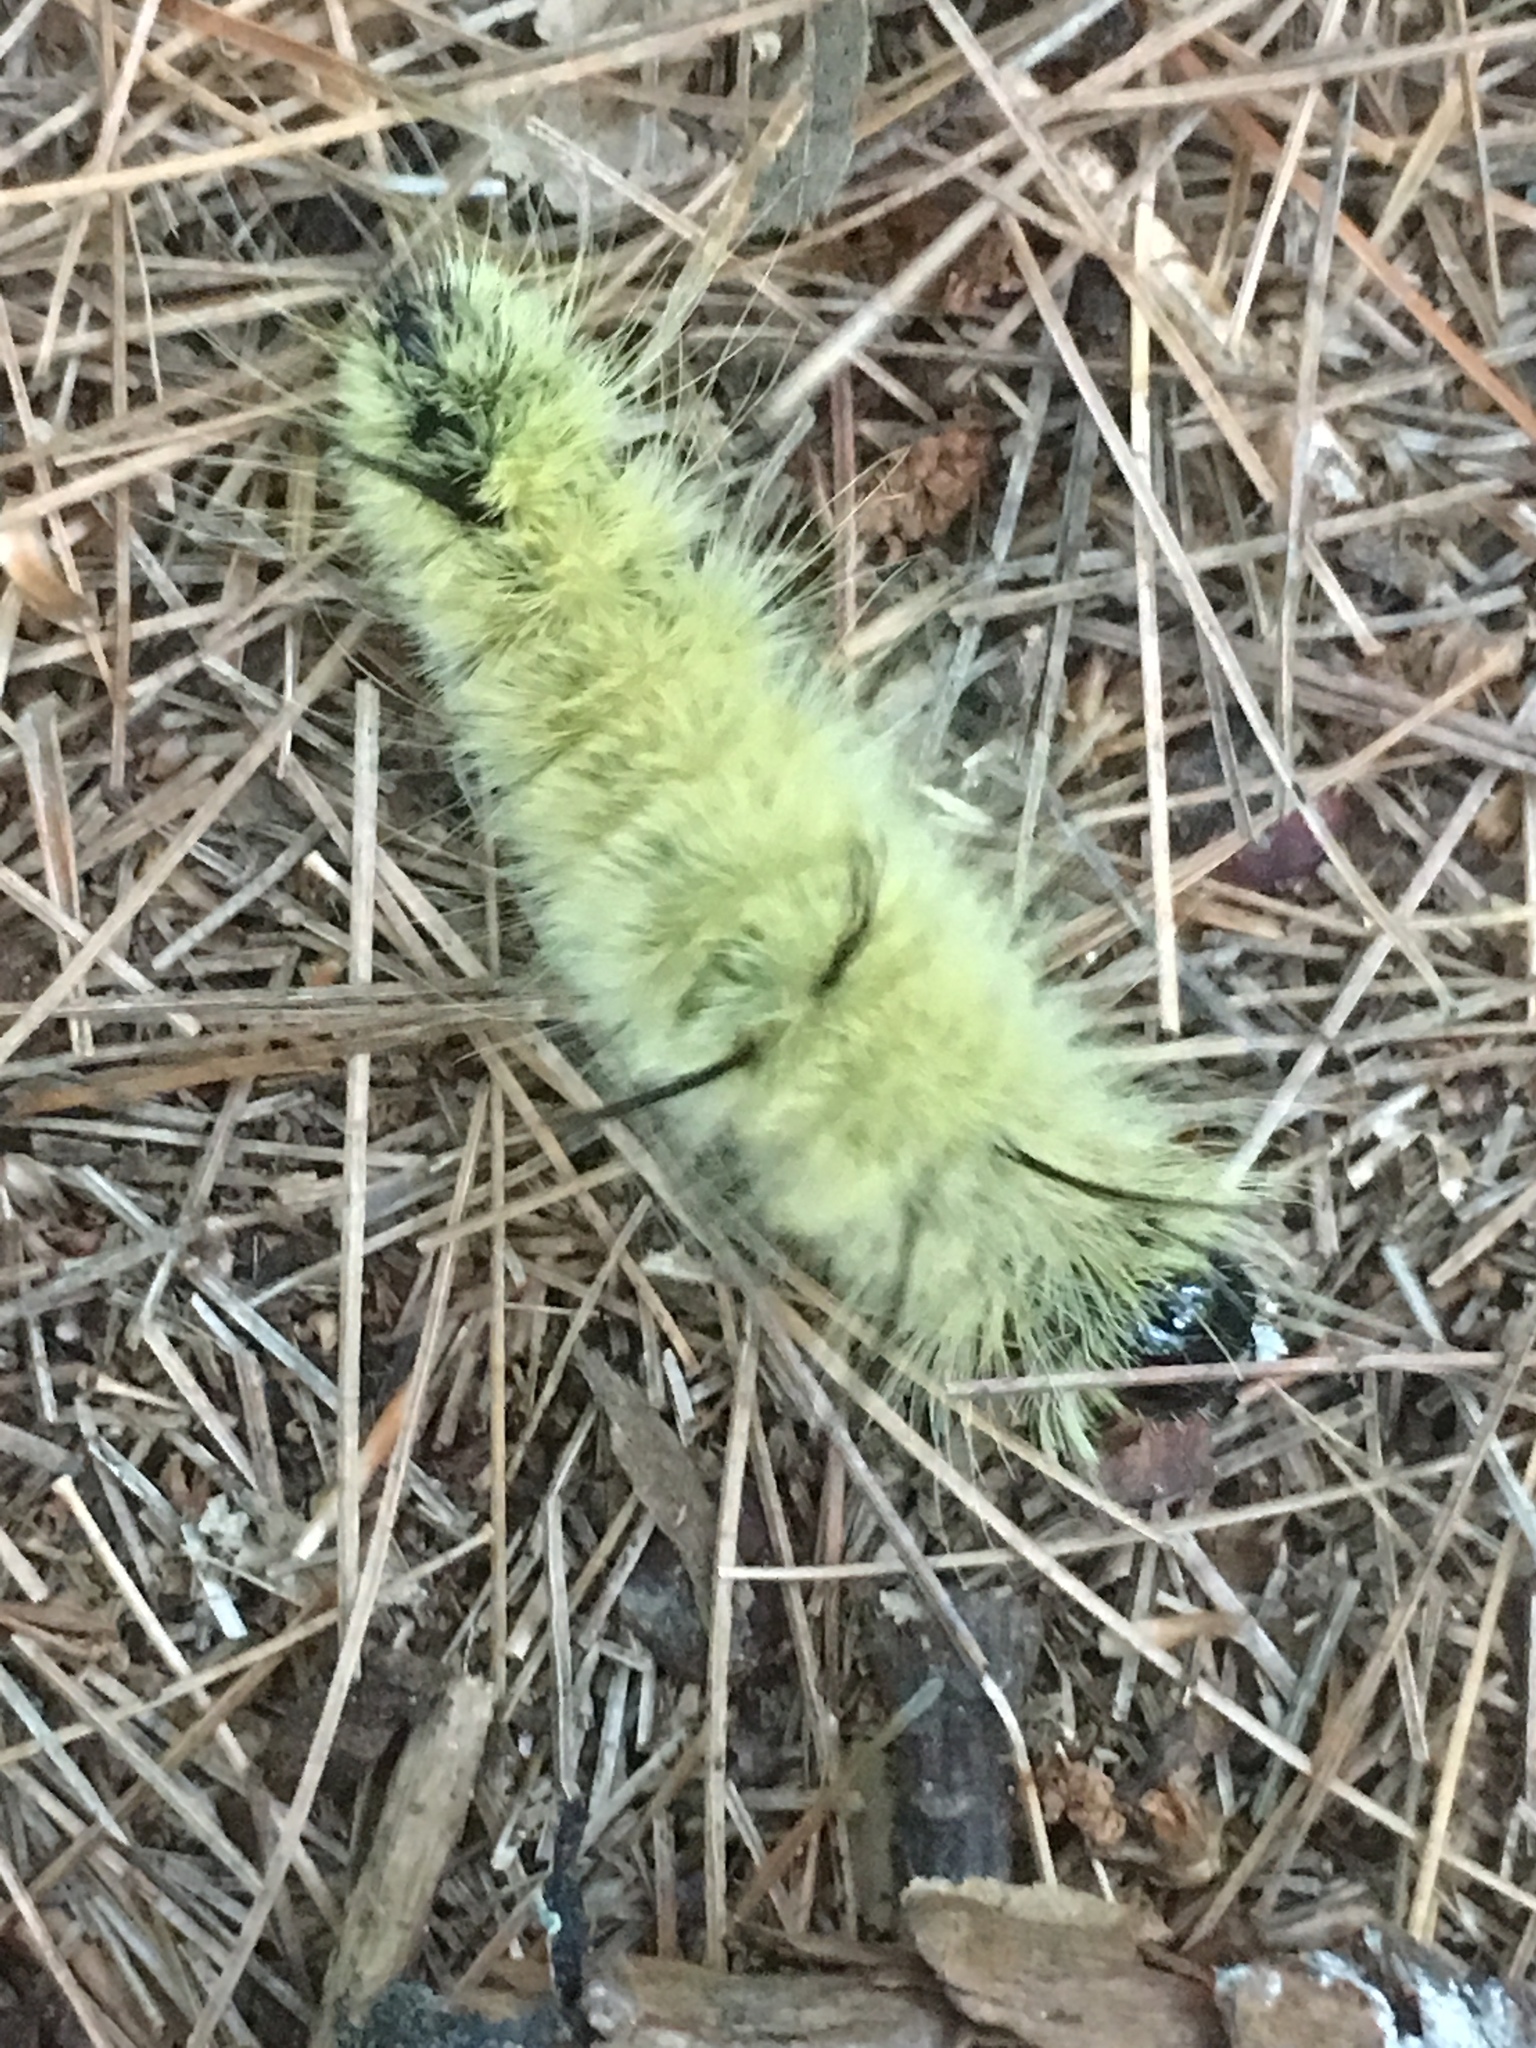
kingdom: Animalia
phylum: Arthropoda
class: Insecta
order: Lepidoptera
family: Noctuidae
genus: Acronicta
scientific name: Acronicta americana
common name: American dagger
